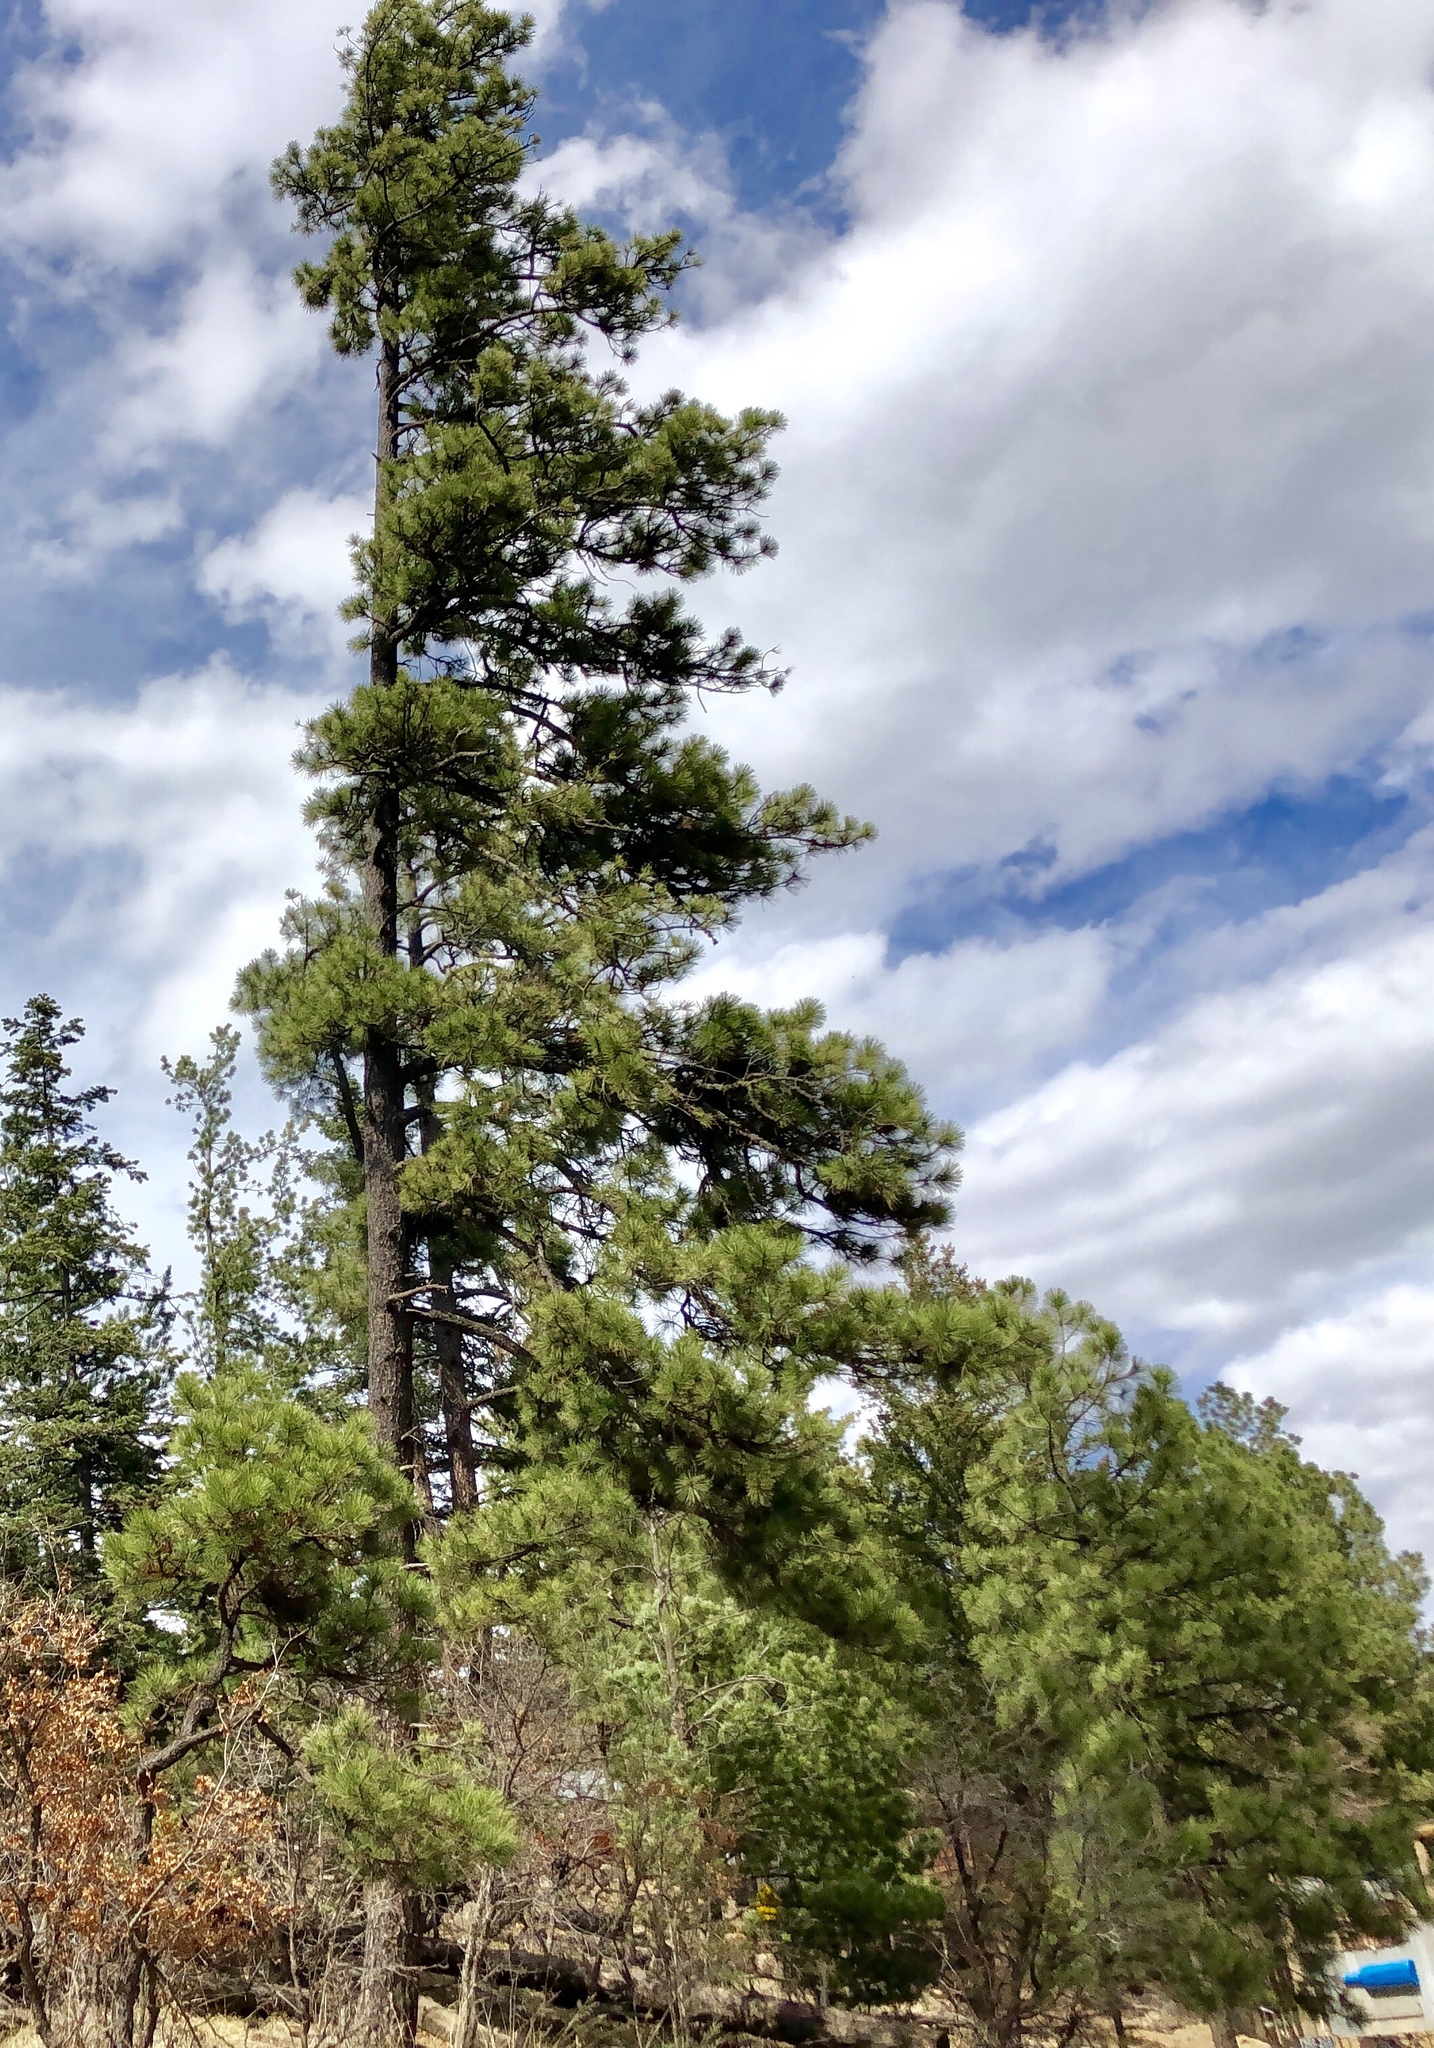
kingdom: Plantae
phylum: Tracheophyta
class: Pinopsida
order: Pinales
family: Pinaceae
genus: Pinus
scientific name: Pinus ponderosa
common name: Western yellow-pine
